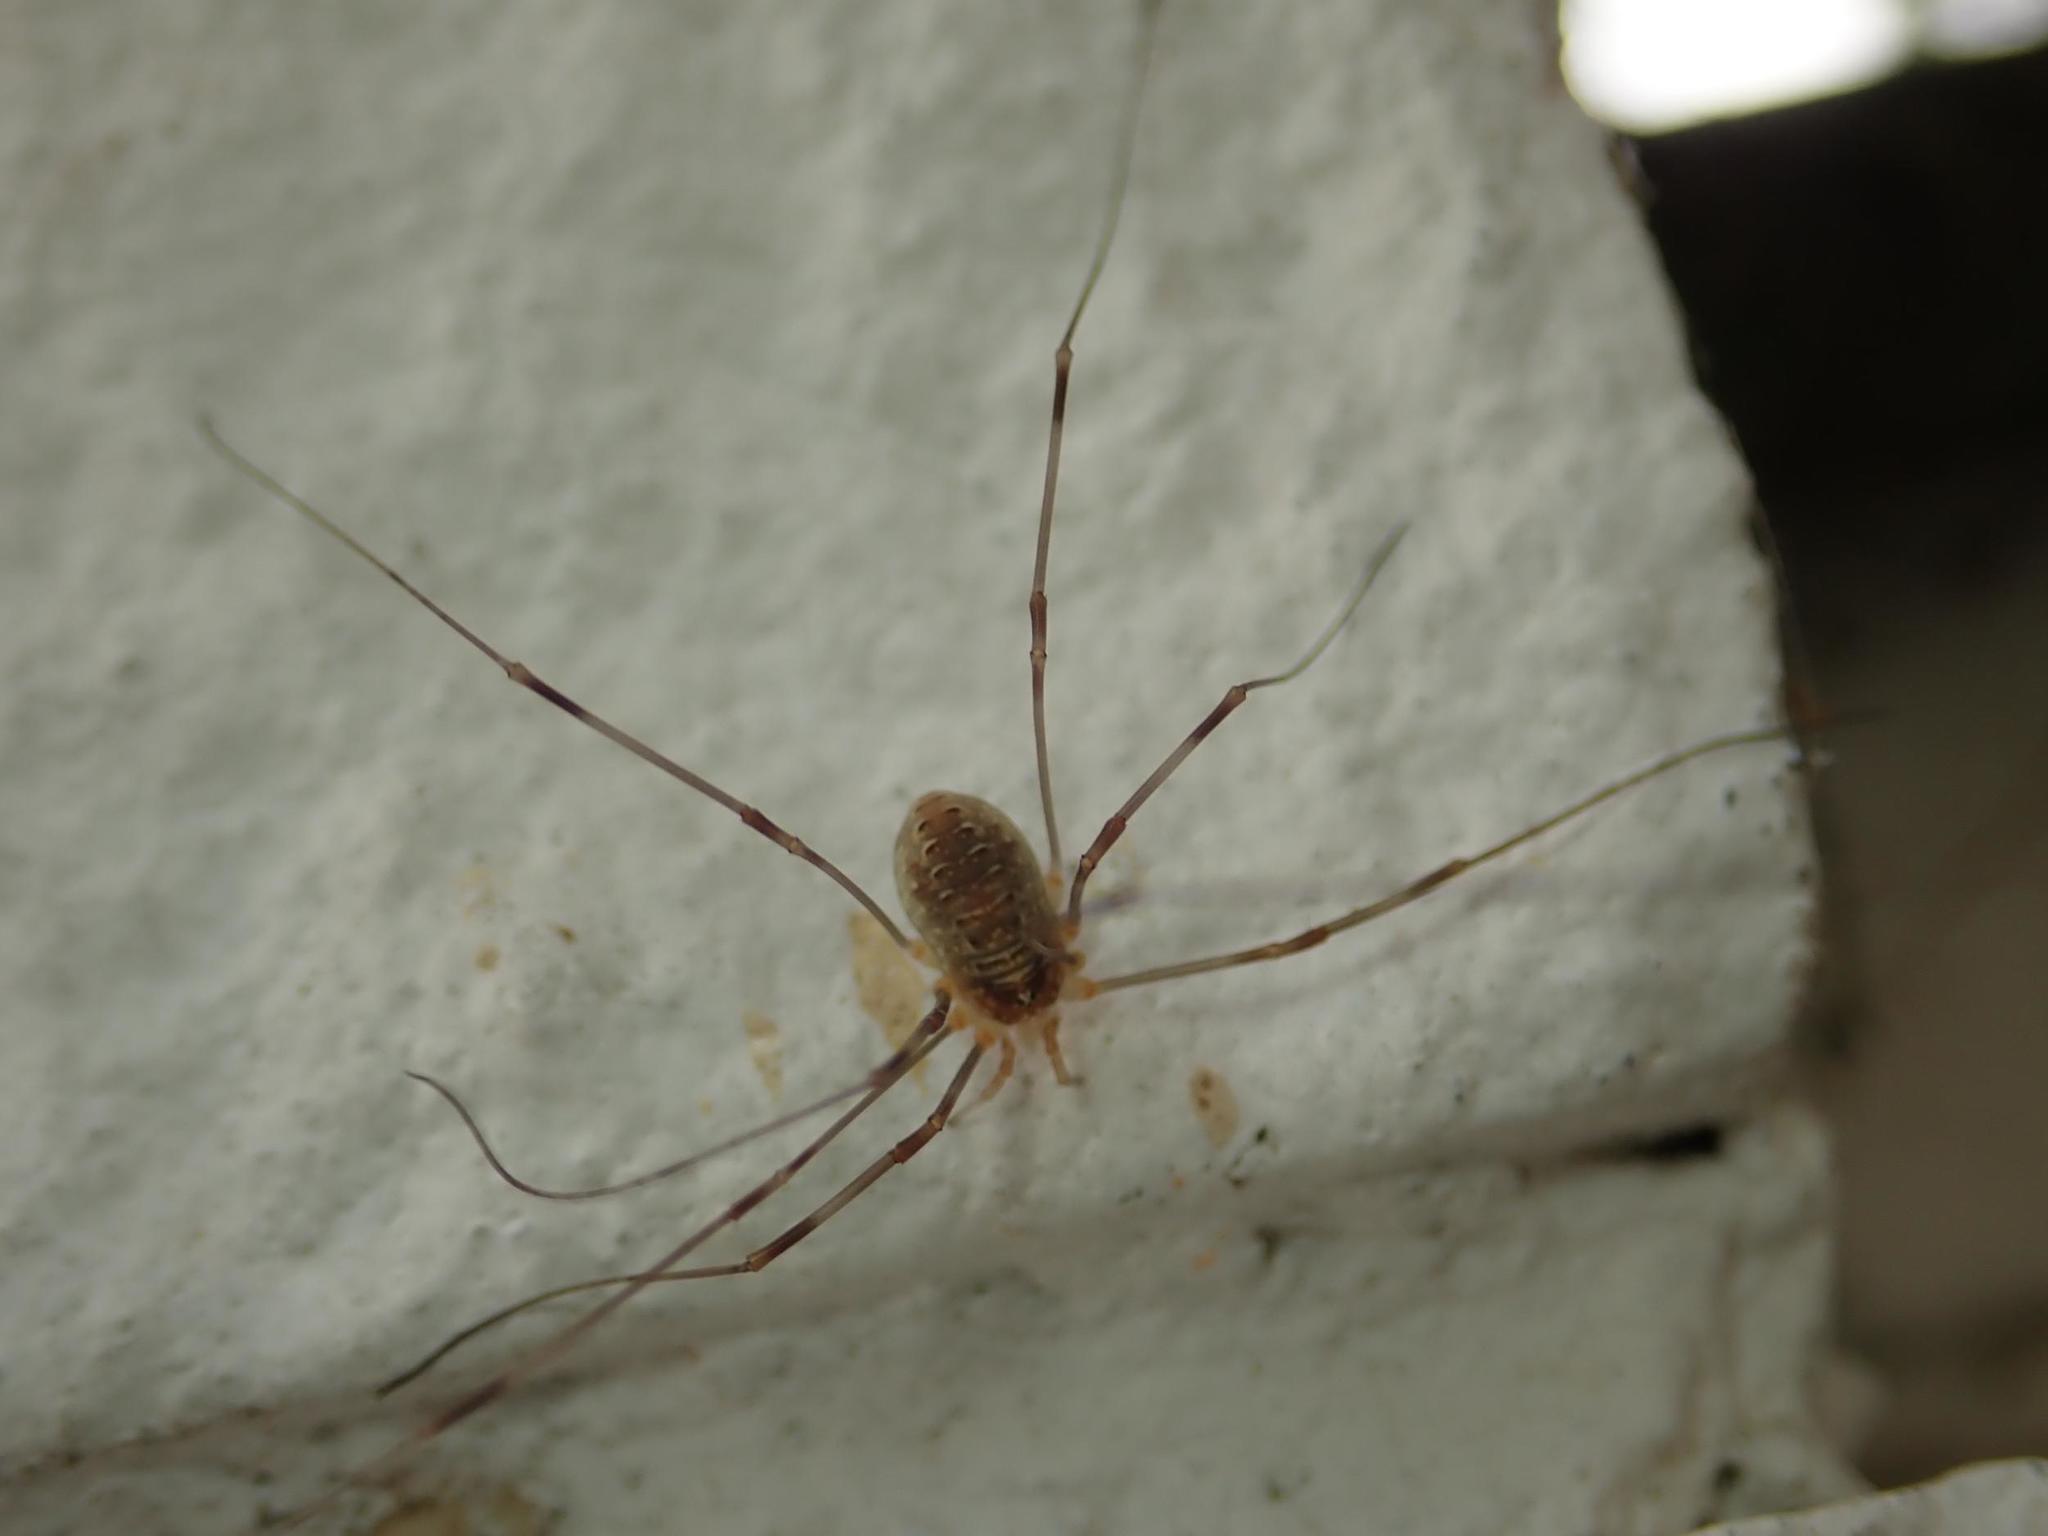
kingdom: Animalia
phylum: Arthropoda
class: Arachnida
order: Opiliones
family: Phalangiidae
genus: Opilio
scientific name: Opilio canestrinii
